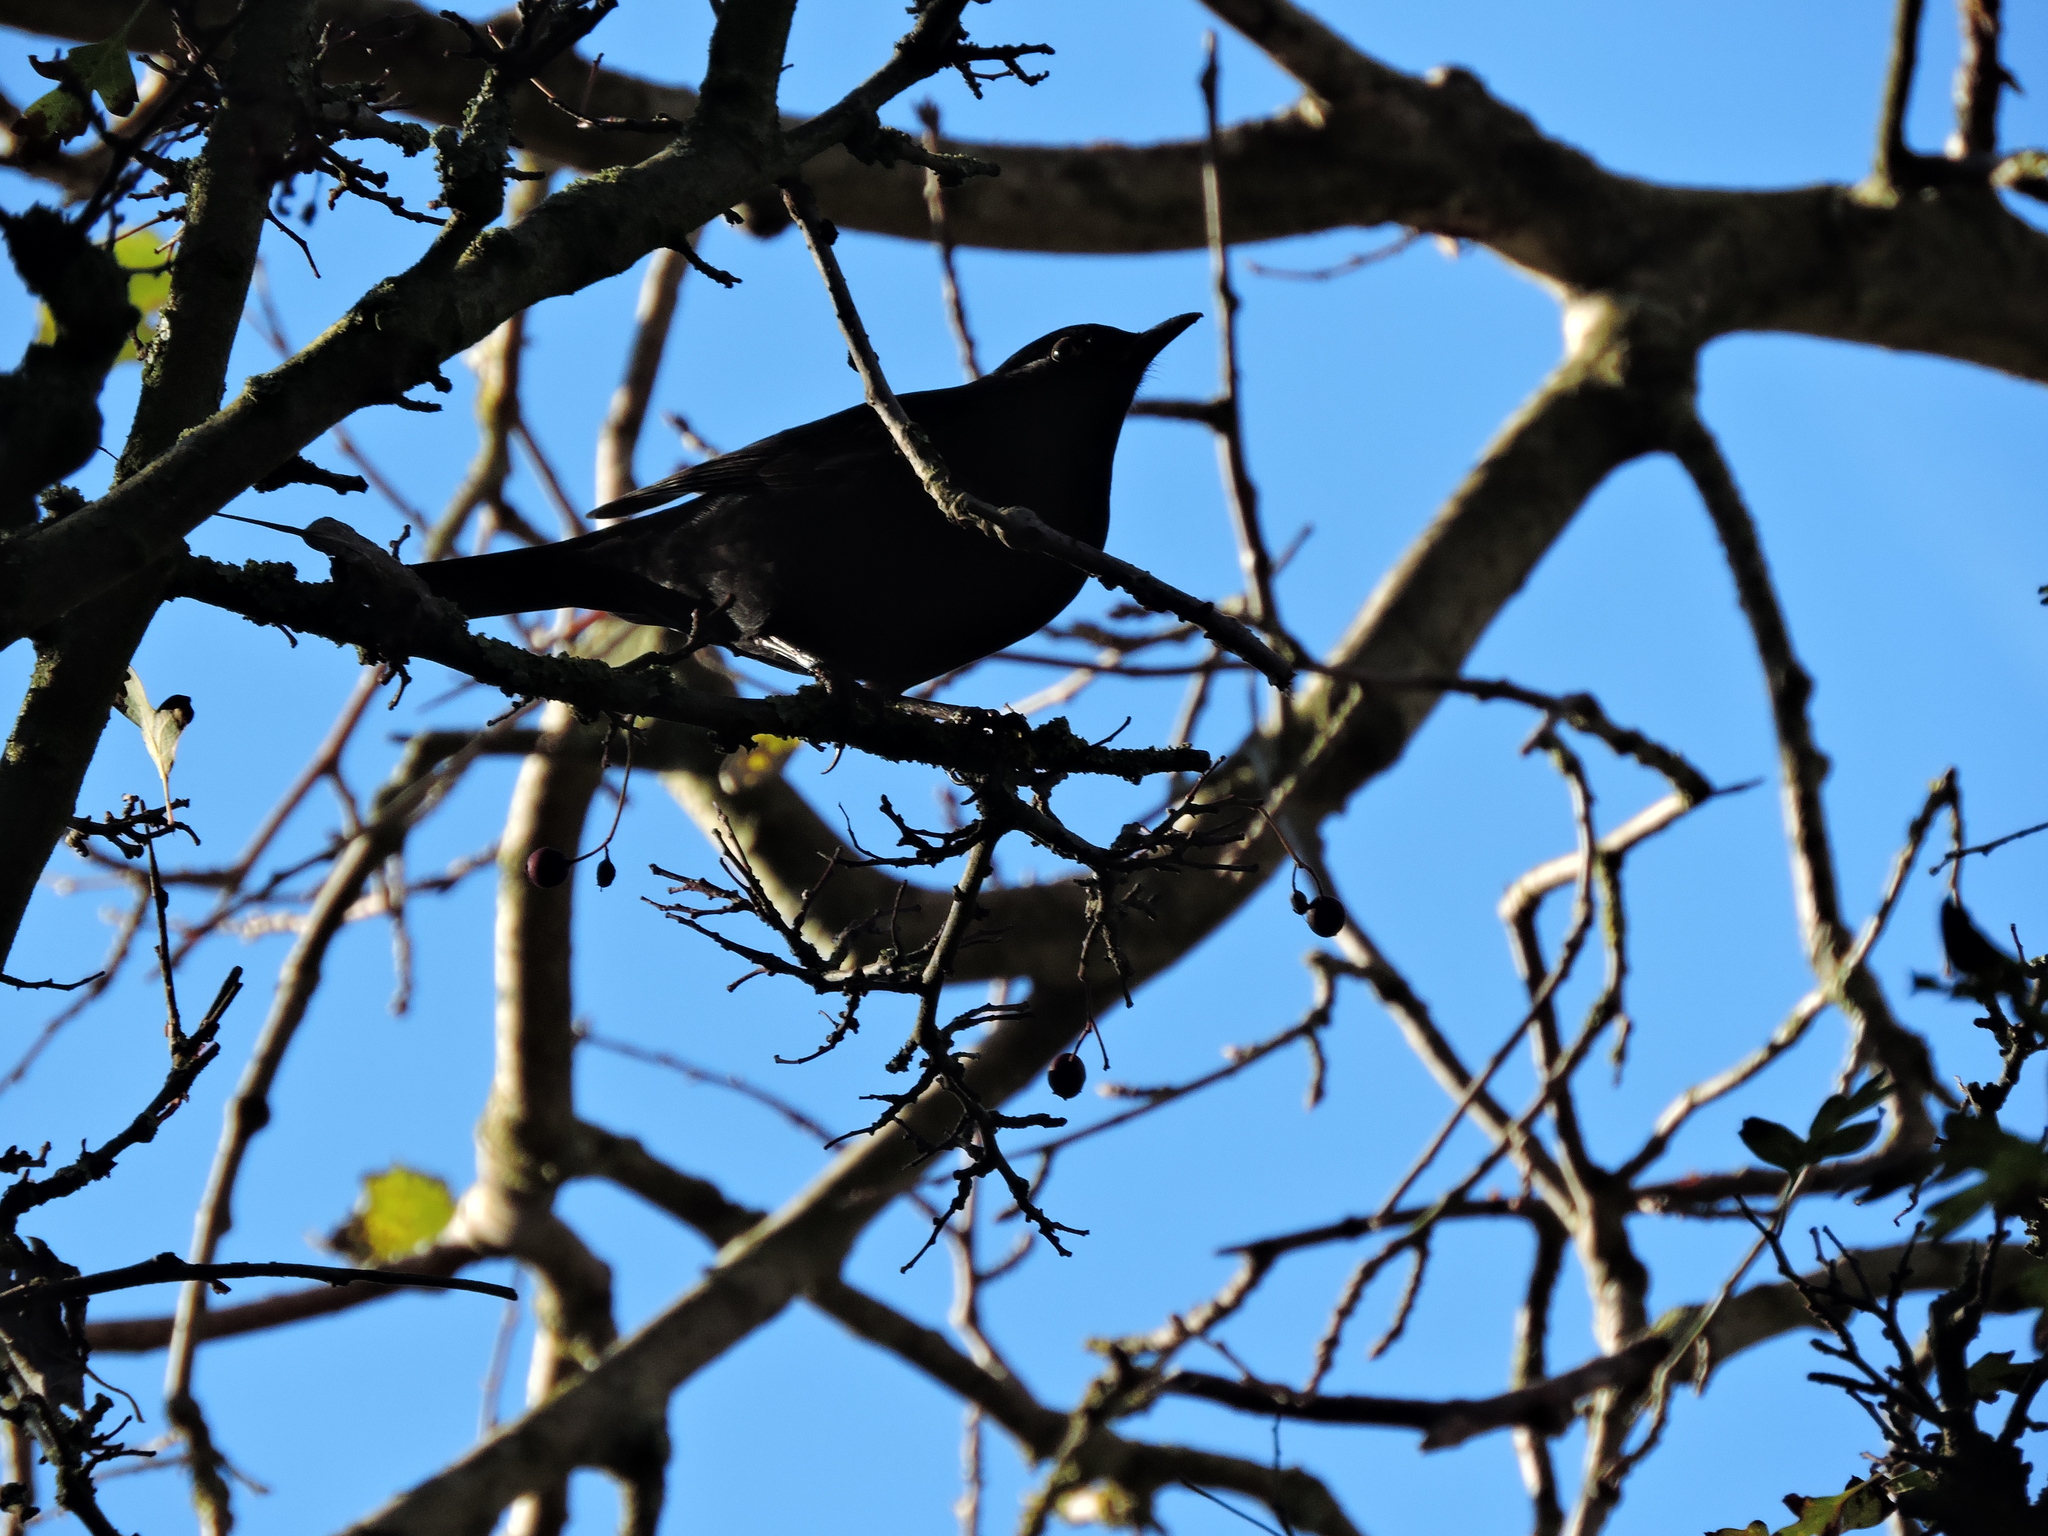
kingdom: Animalia
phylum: Chordata
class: Aves
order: Passeriformes
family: Turdidae
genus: Turdus
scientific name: Turdus merula
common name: Common blackbird
